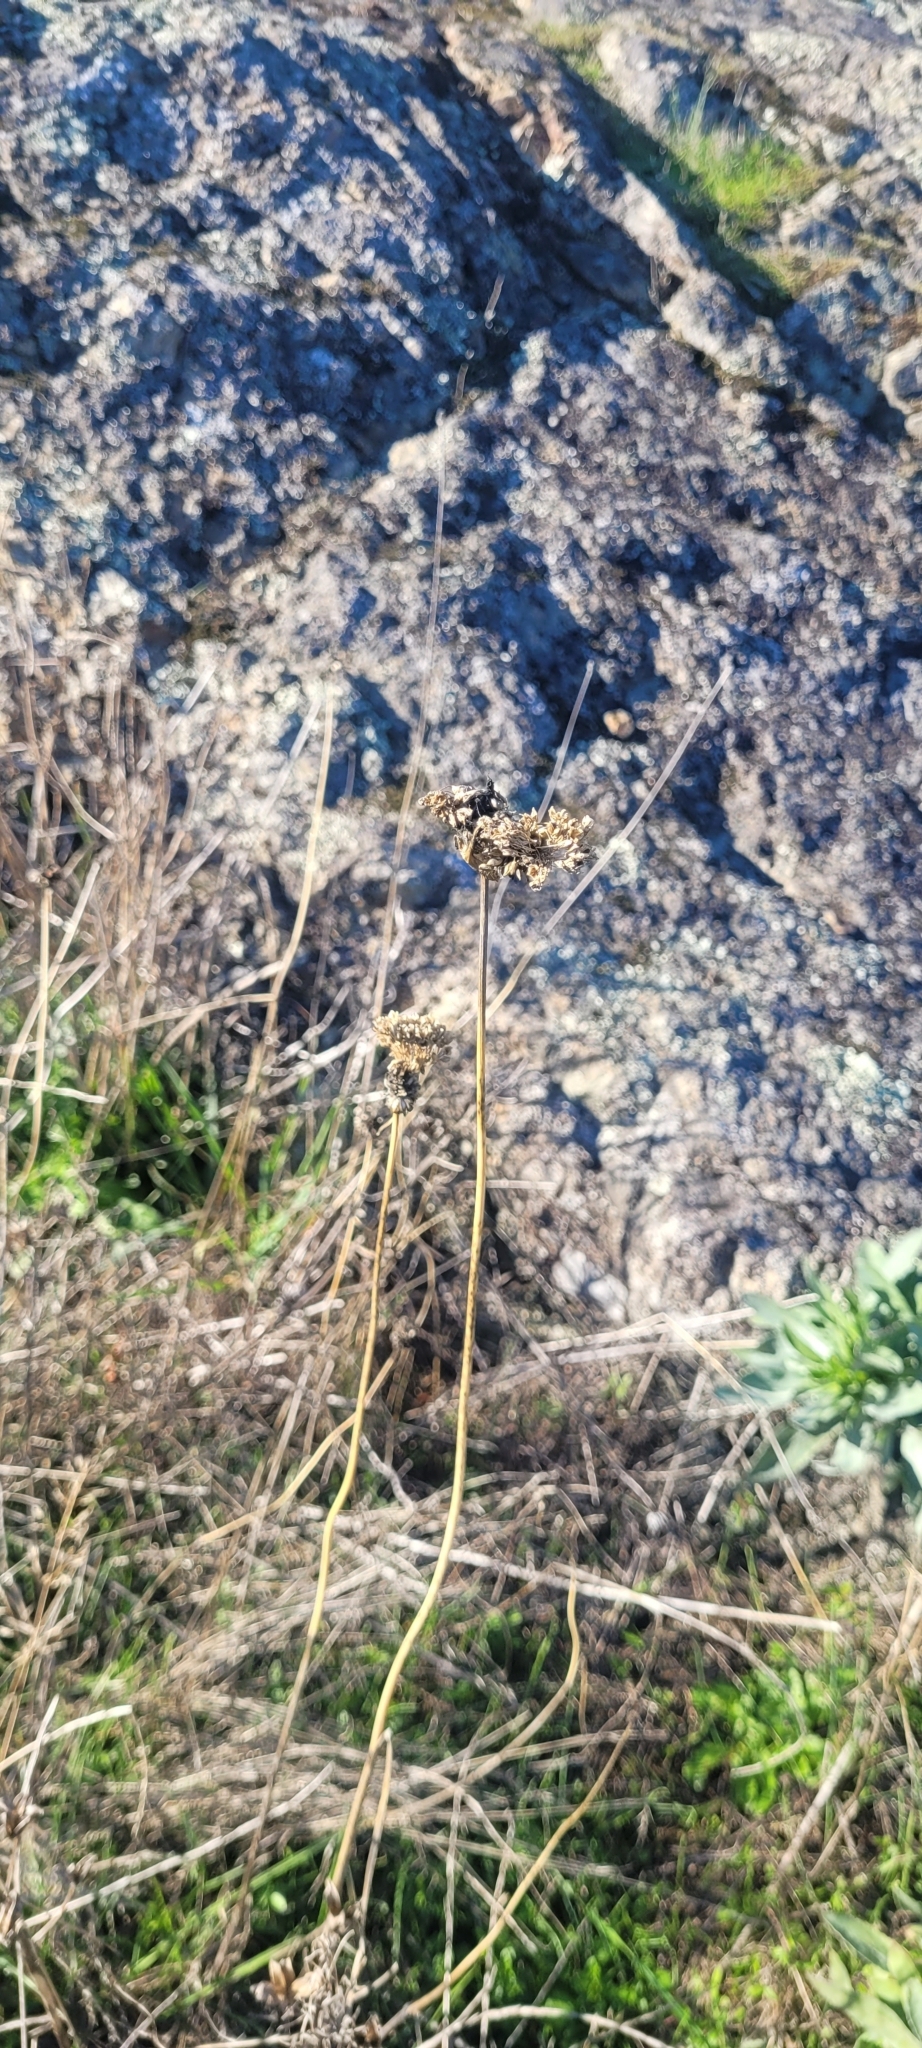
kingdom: Plantae
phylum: Tracheophyta
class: Liliopsida
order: Asparagales
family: Amaryllidaceae
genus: Allium
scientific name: Allium vineale
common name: Crow garlic
